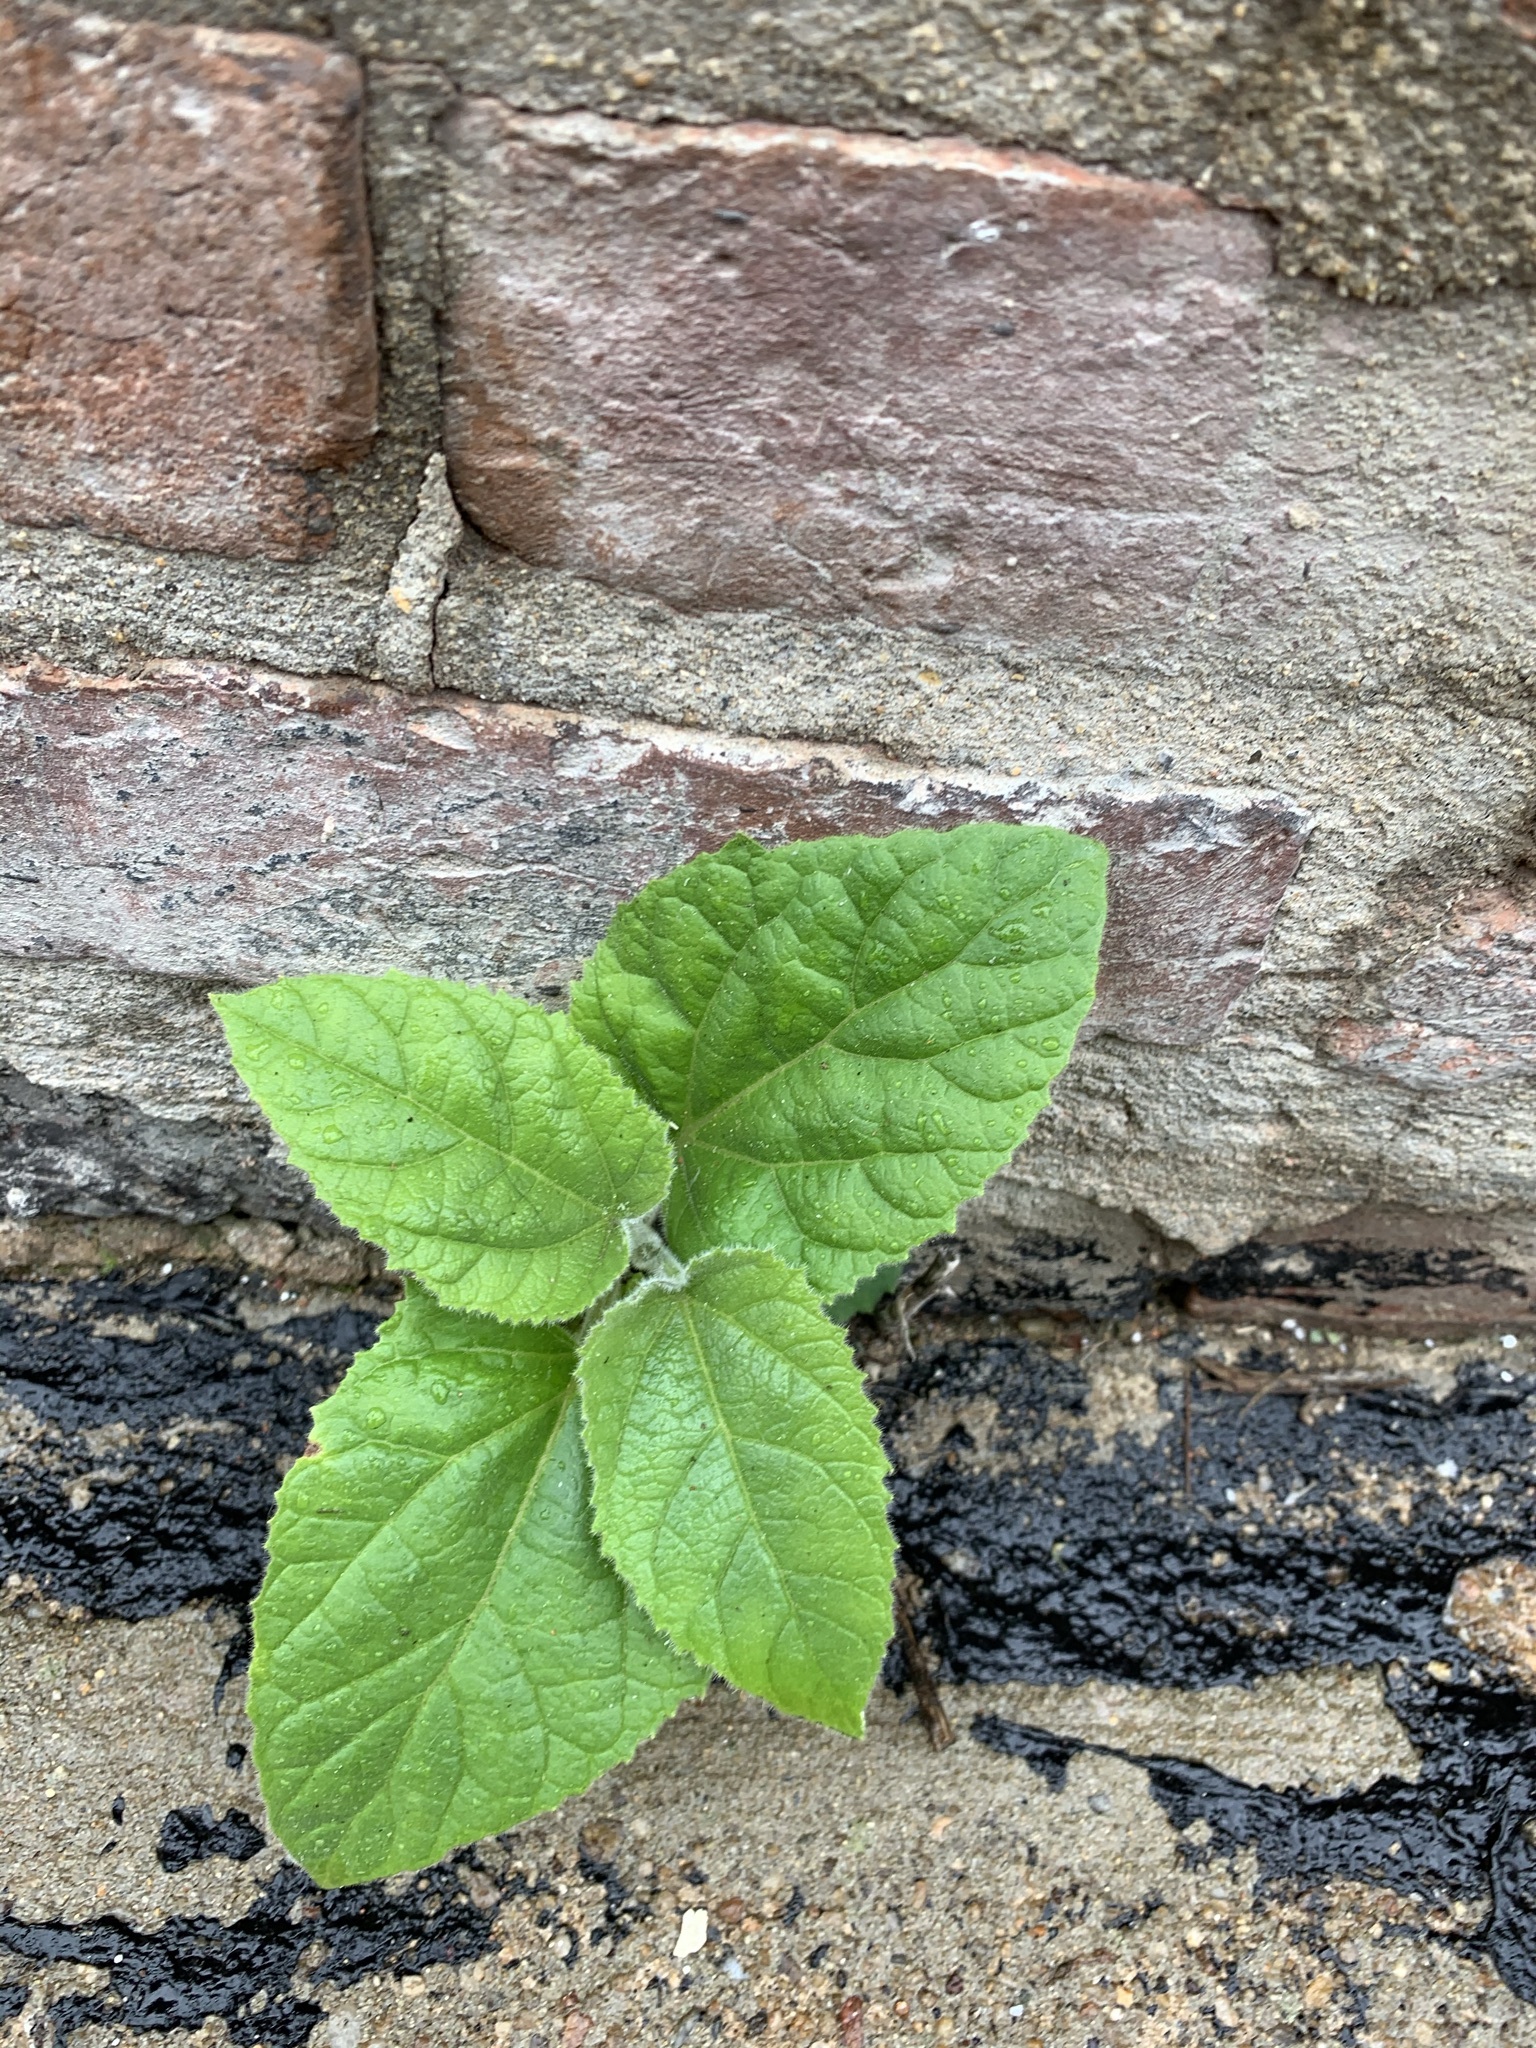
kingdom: Plantae
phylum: Tracheophyta
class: Magnoliopsida
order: Lamiales
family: Paulowniaceae
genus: Paulownia
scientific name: Paulownia tomentosa
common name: Foxglove-tree
